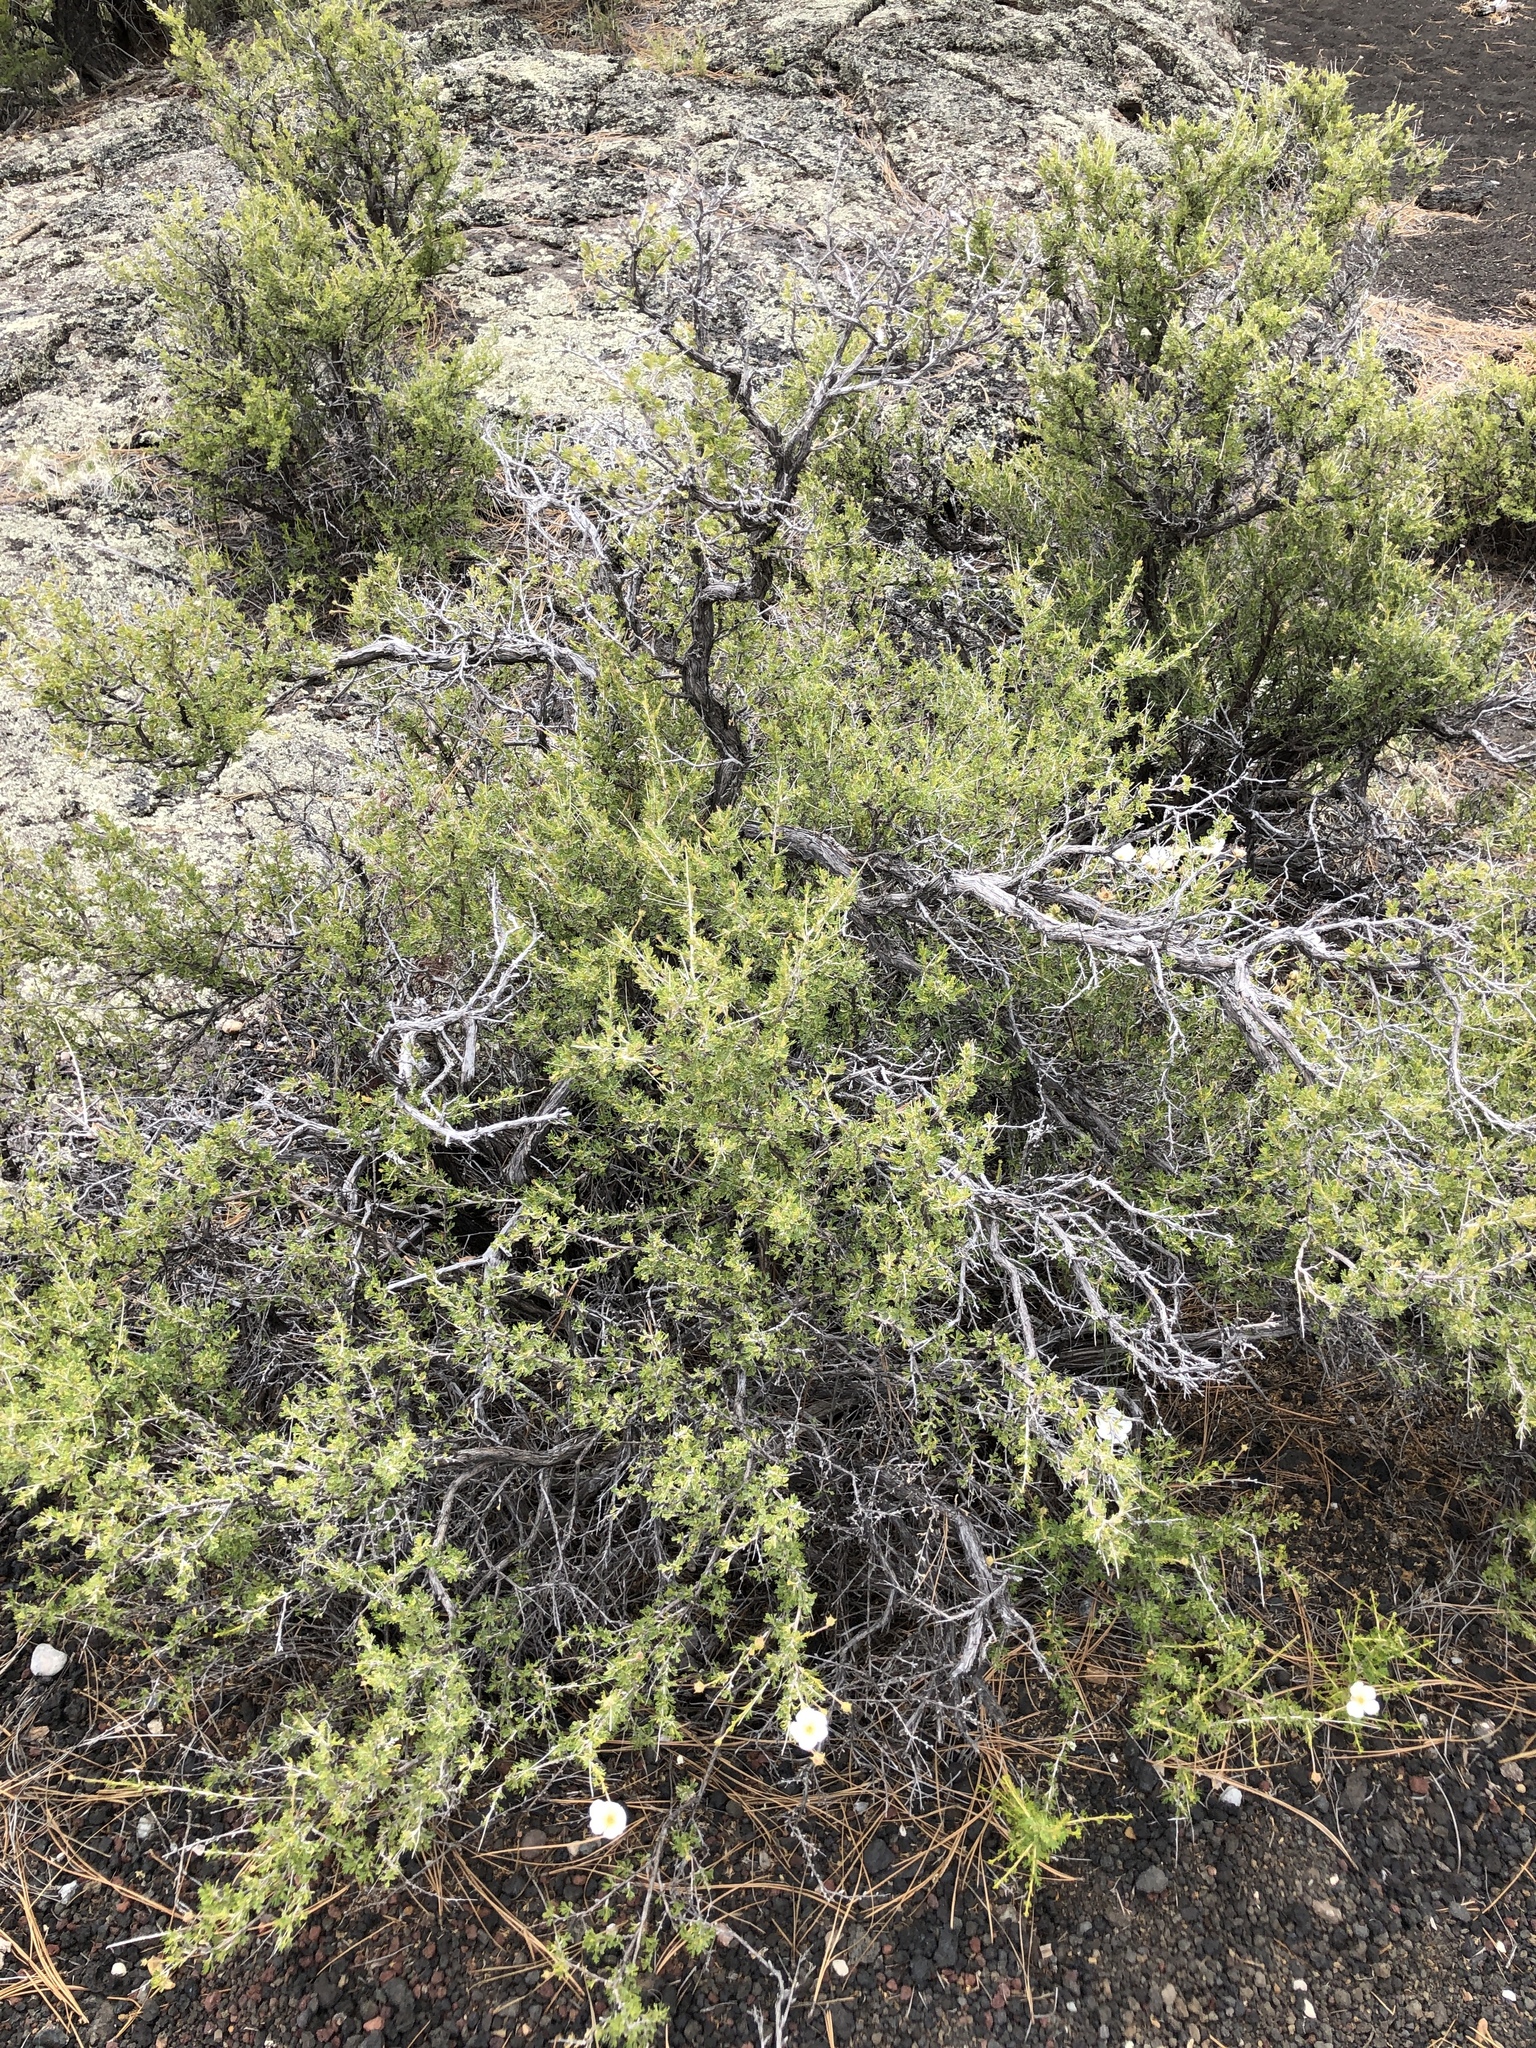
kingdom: Plantae
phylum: Tracheophyta
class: Magnoliopsida
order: Rosales
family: Rosaceae
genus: Fallugia
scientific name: Fallugia paradoxa
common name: Apache-plume
